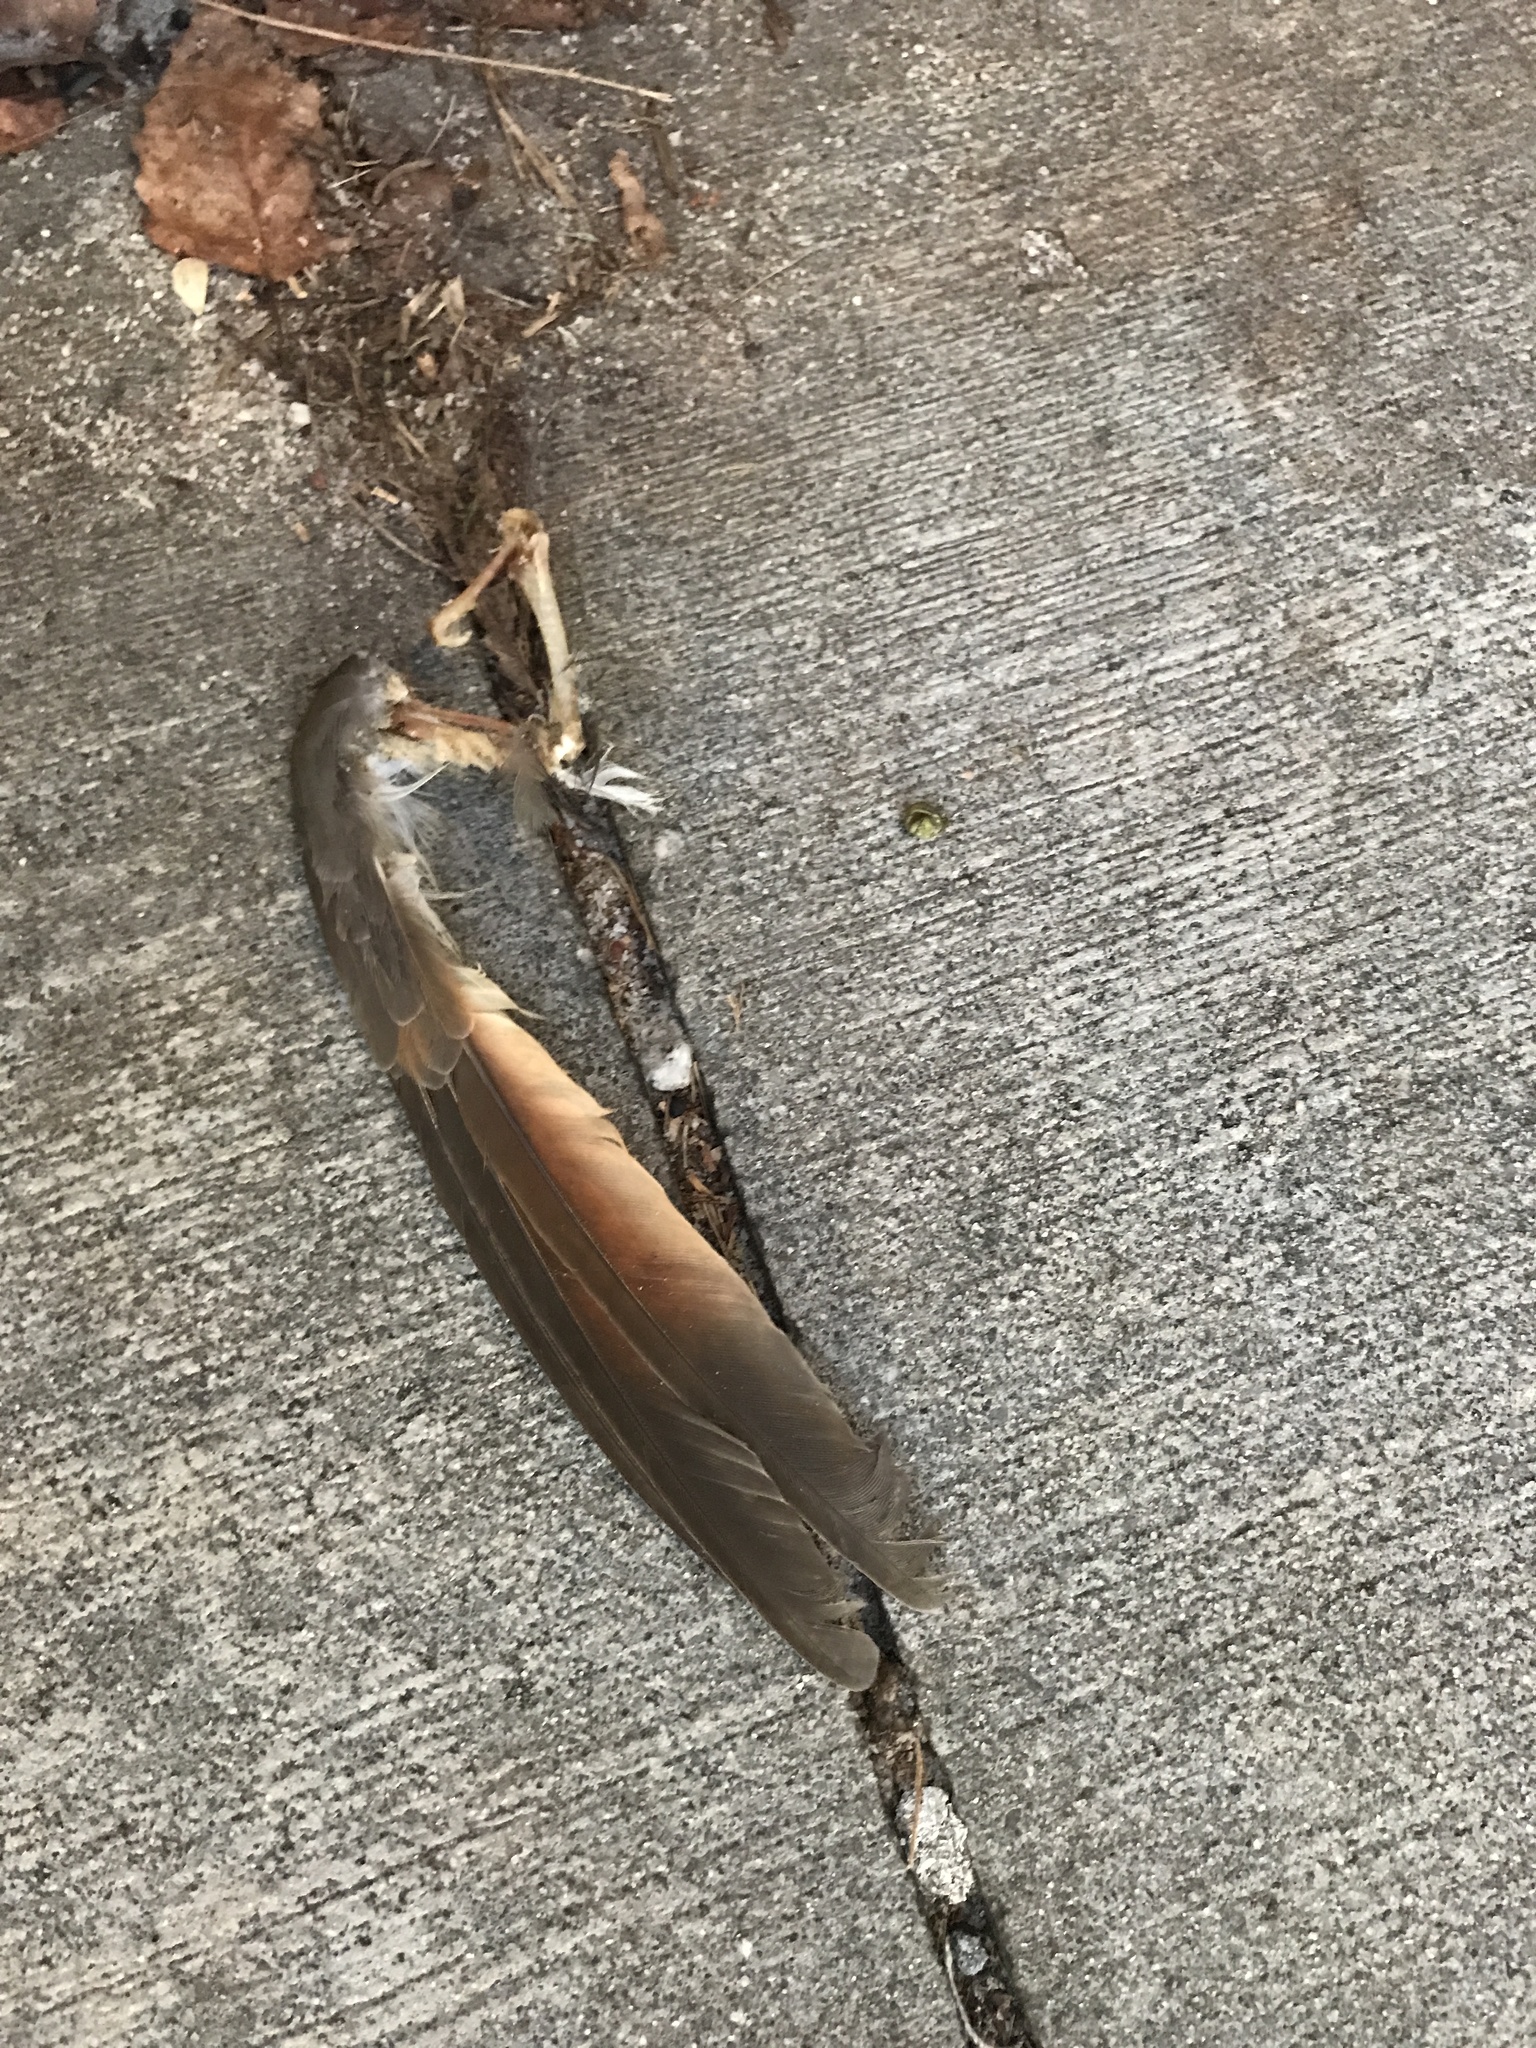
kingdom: Animalia
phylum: Chordata
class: Aves
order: Cuculiformes
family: Cuculidae
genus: Coccyzus
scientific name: Coccyzus americanus
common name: Yellow-billed cuckoo
